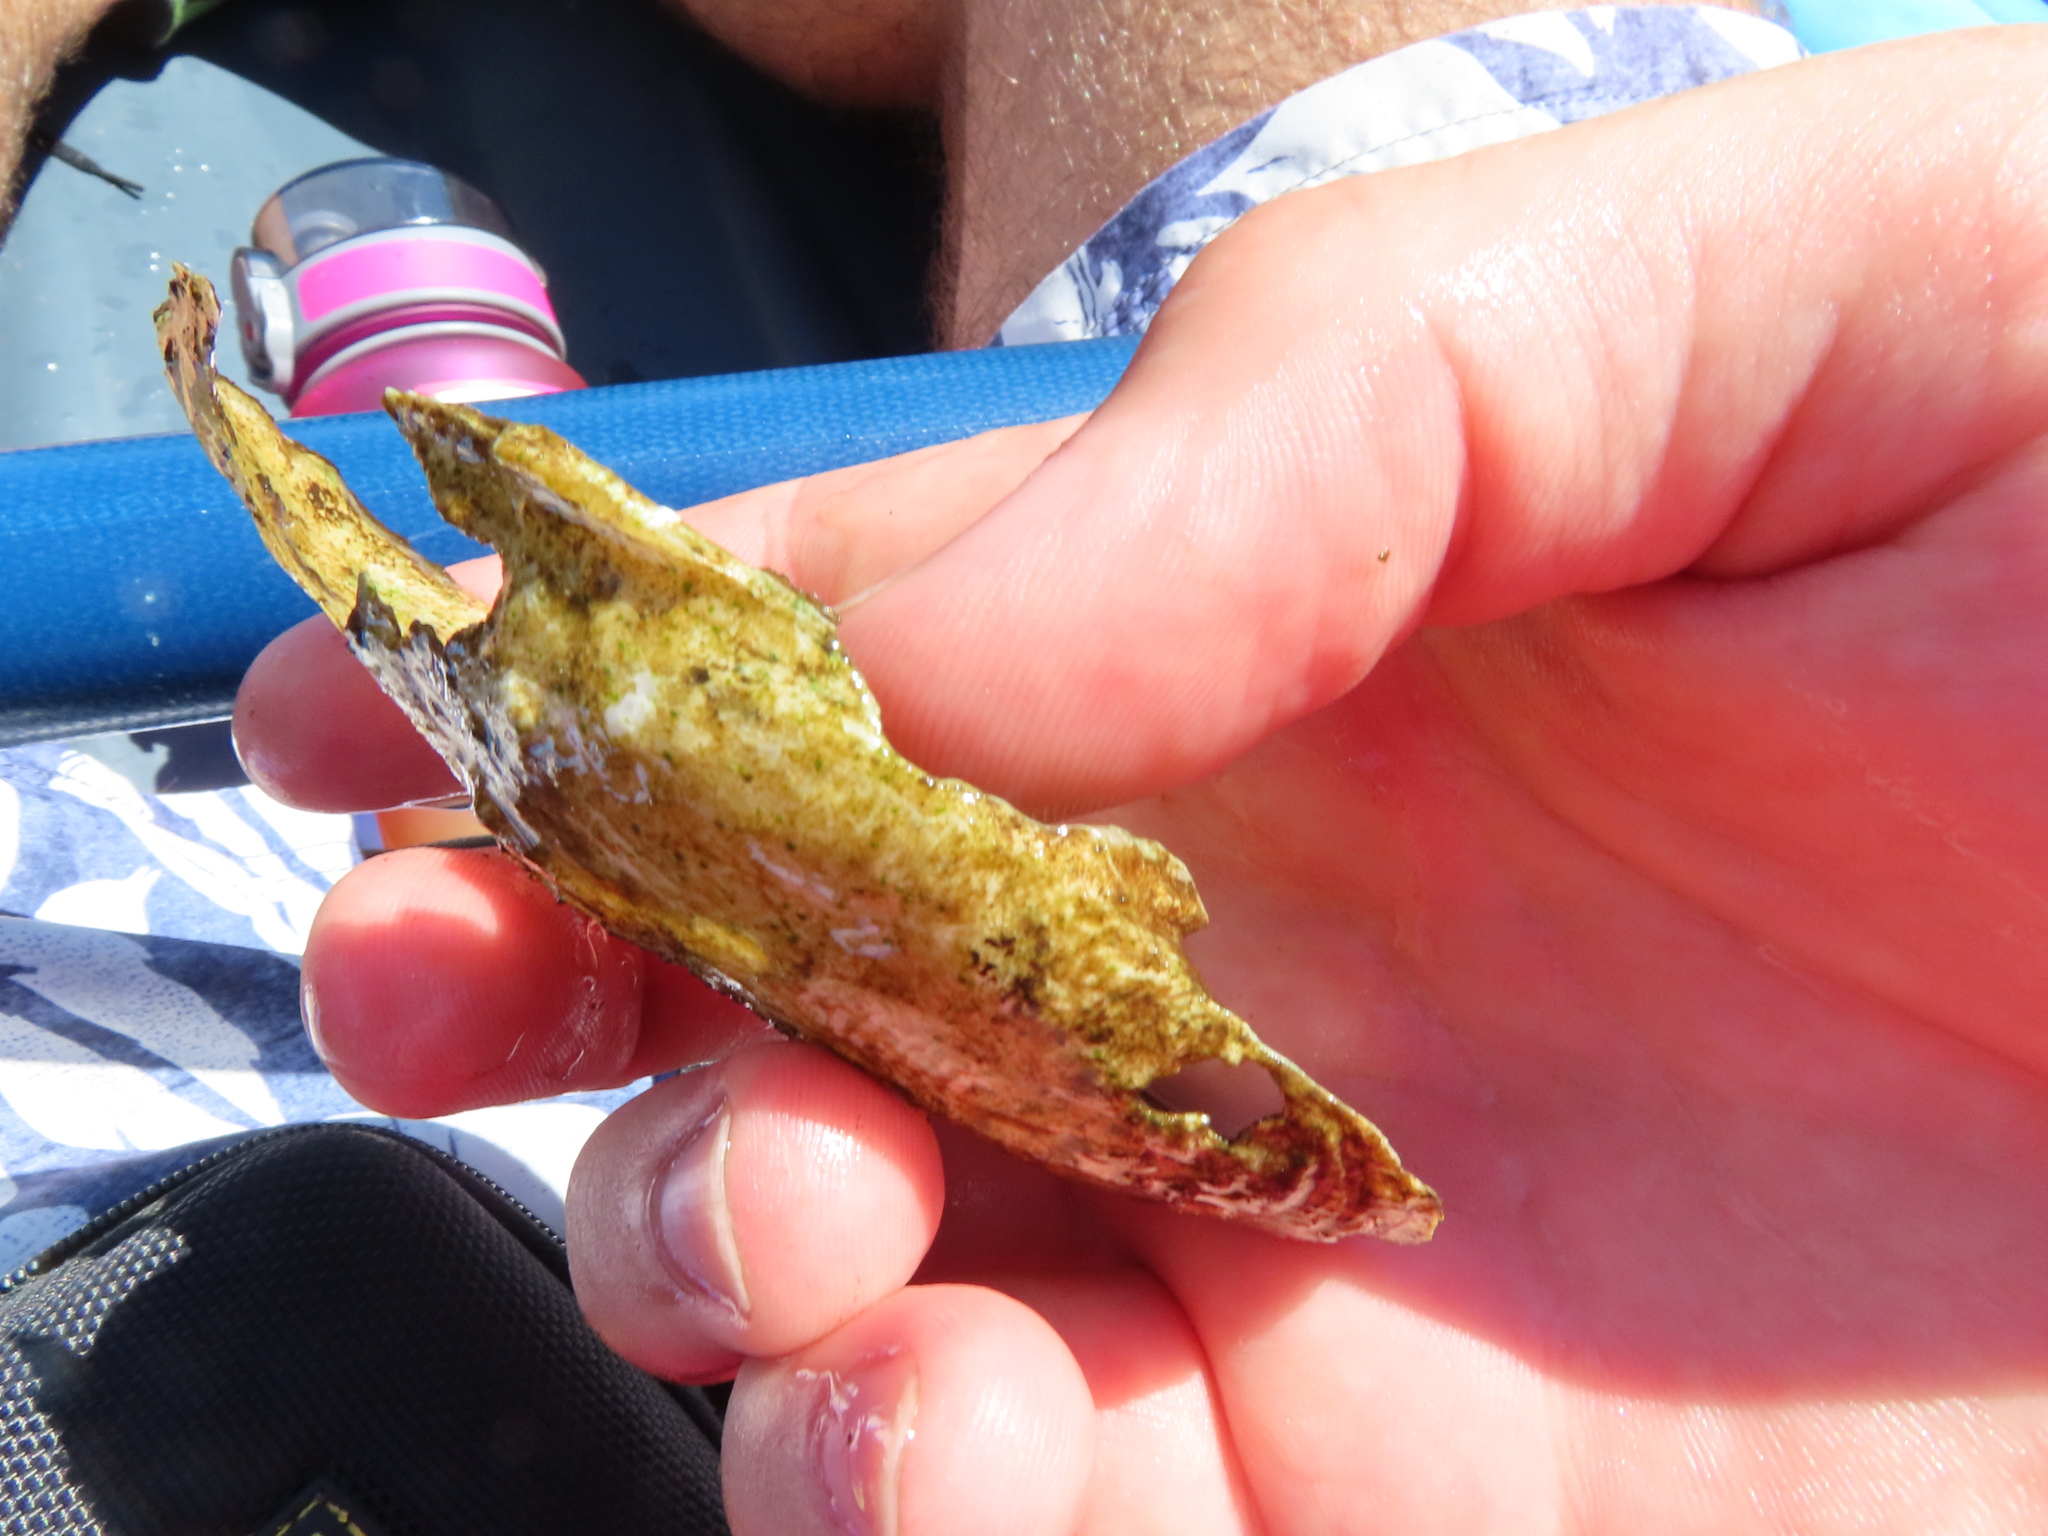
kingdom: Animalia
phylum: Mollusca
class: Bivalvia
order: Unionida
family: Unionidae
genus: Lasmigona
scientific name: Lasmigona costata
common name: Flutedshell
